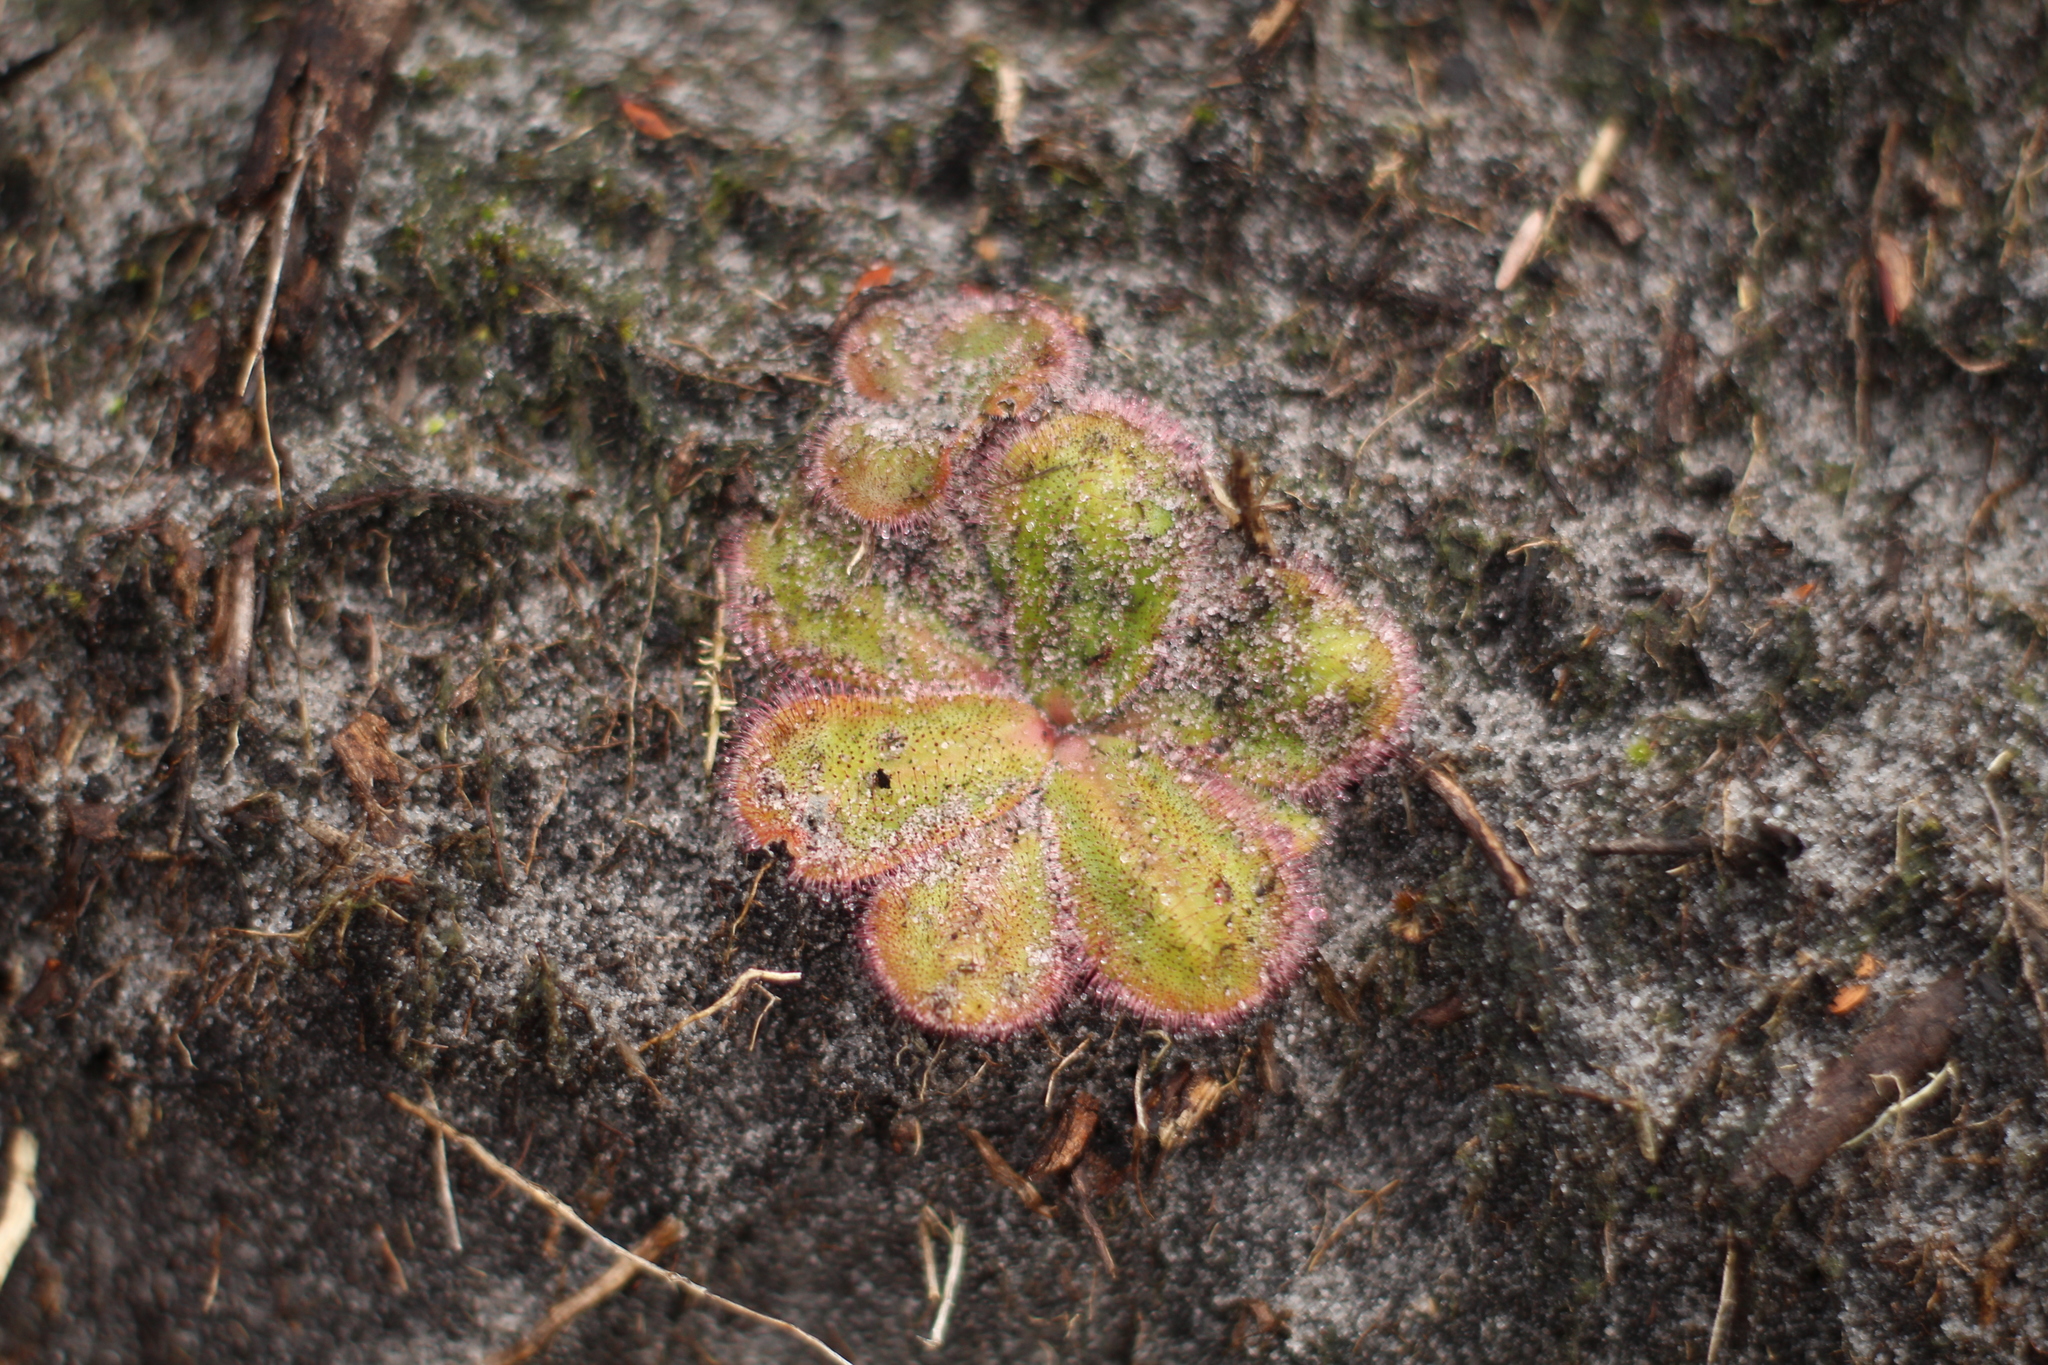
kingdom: Plantae
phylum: Tracheophyta
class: Magnoliopsida
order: Caryophyllales
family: Droseraceae
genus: Drosera
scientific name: Drosera erythrorhiza
